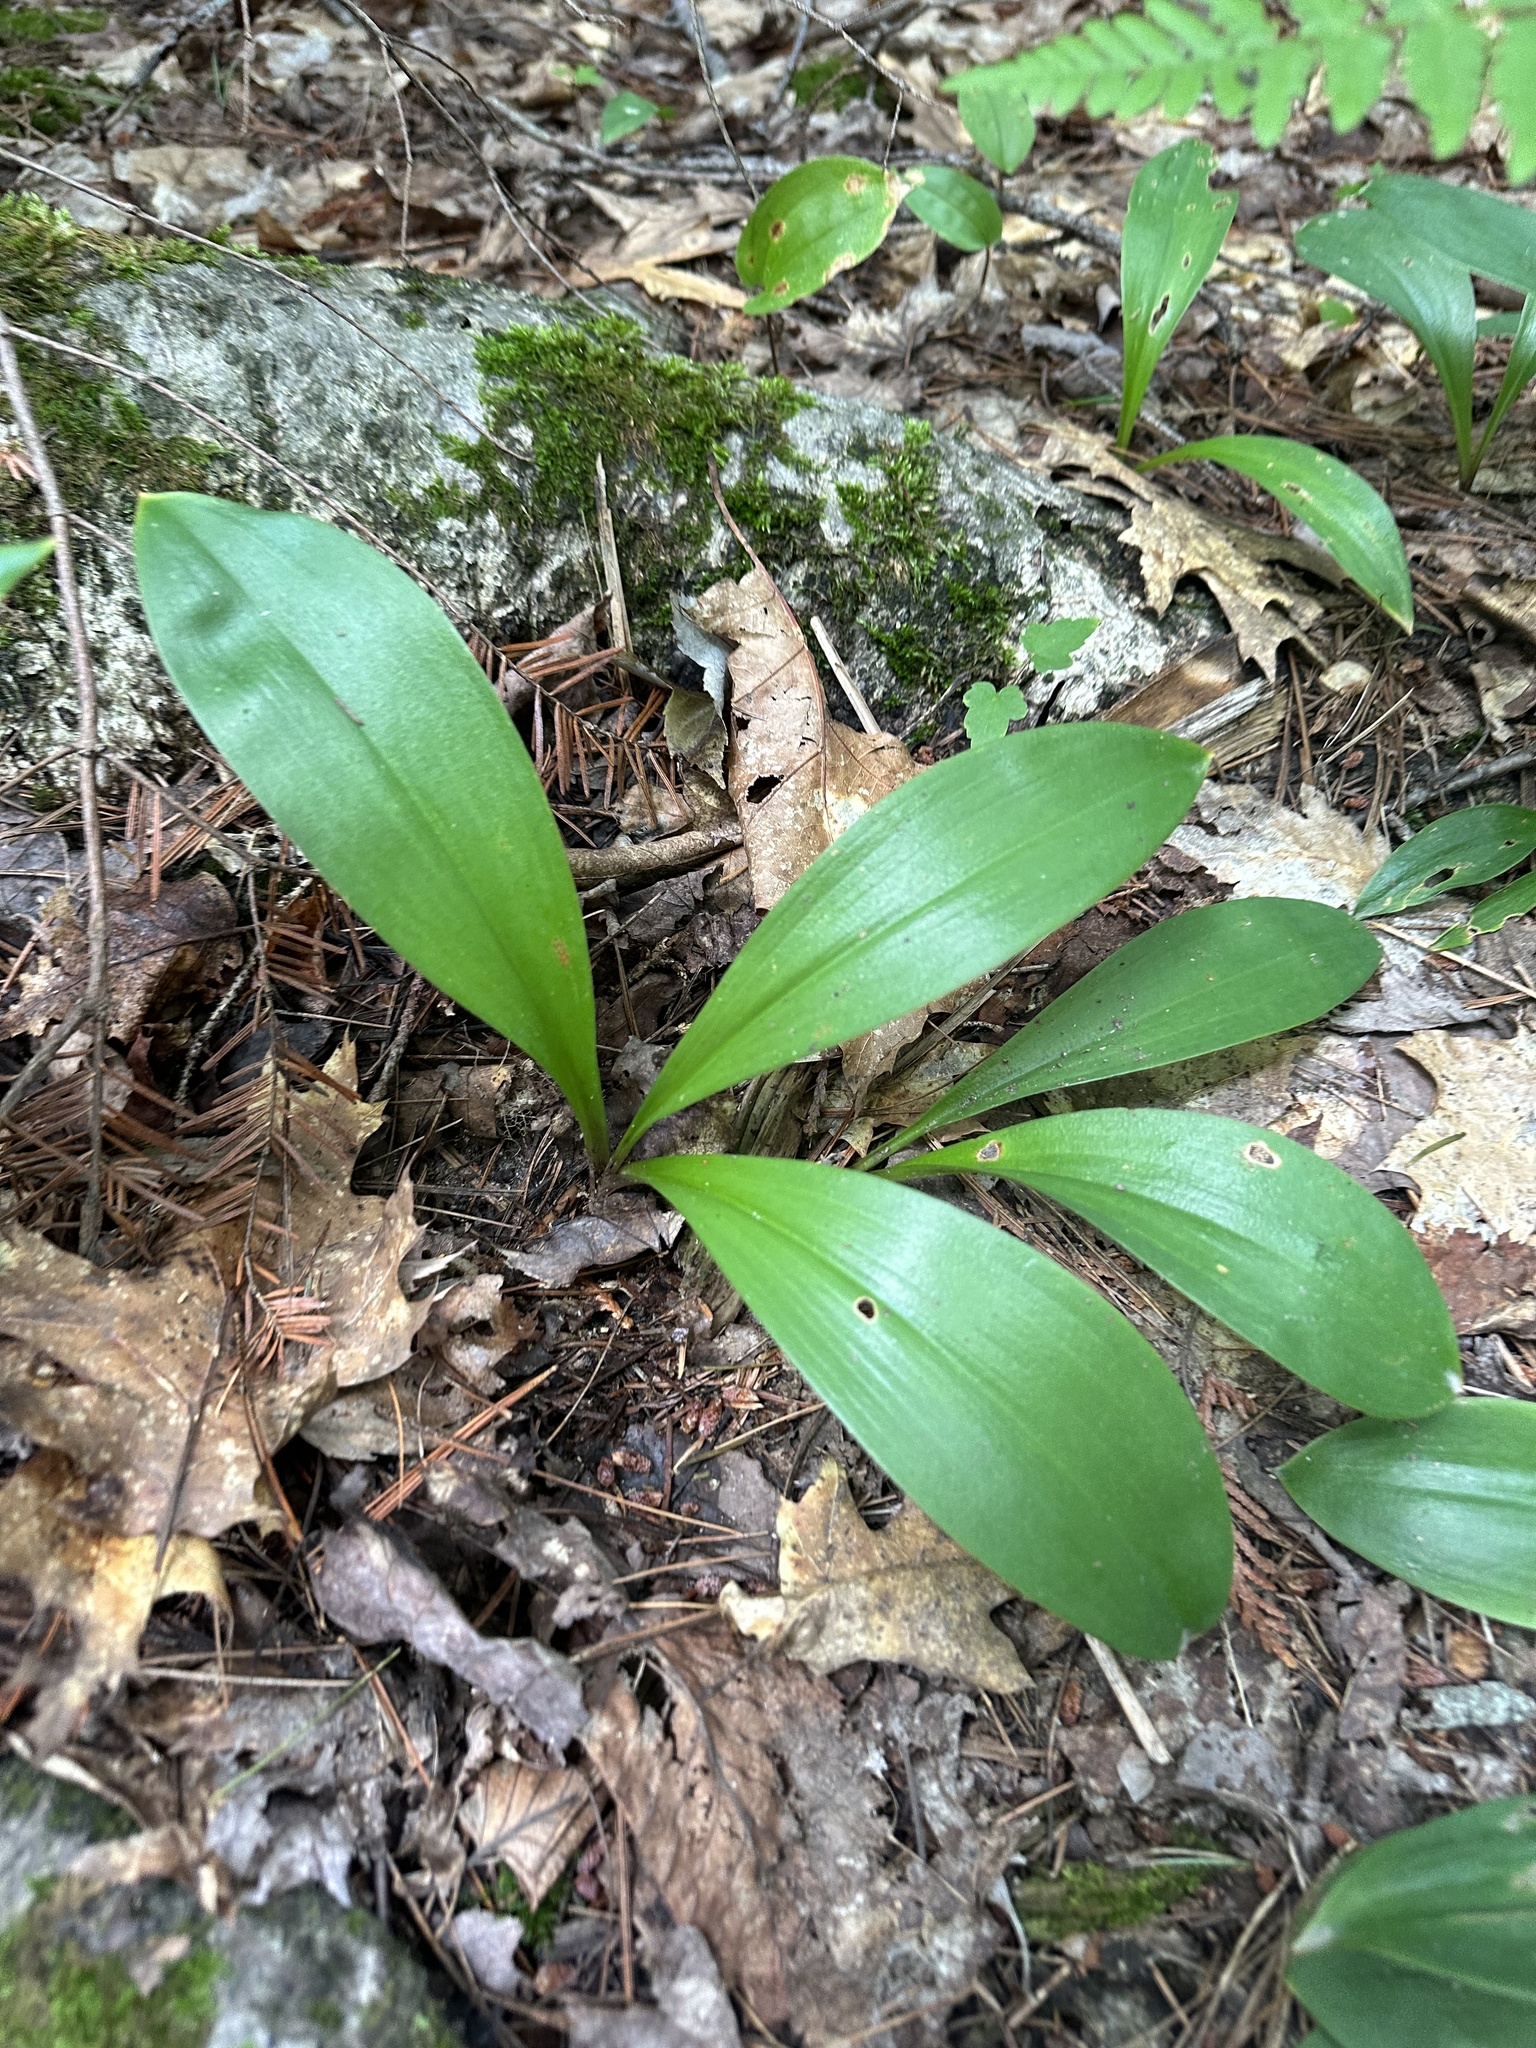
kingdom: Plantae
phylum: Tracheophyta
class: Liliopsida
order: Liliales
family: Liliaceae
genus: Clintonia
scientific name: Clintonia borealis
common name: Yellow clintonia
